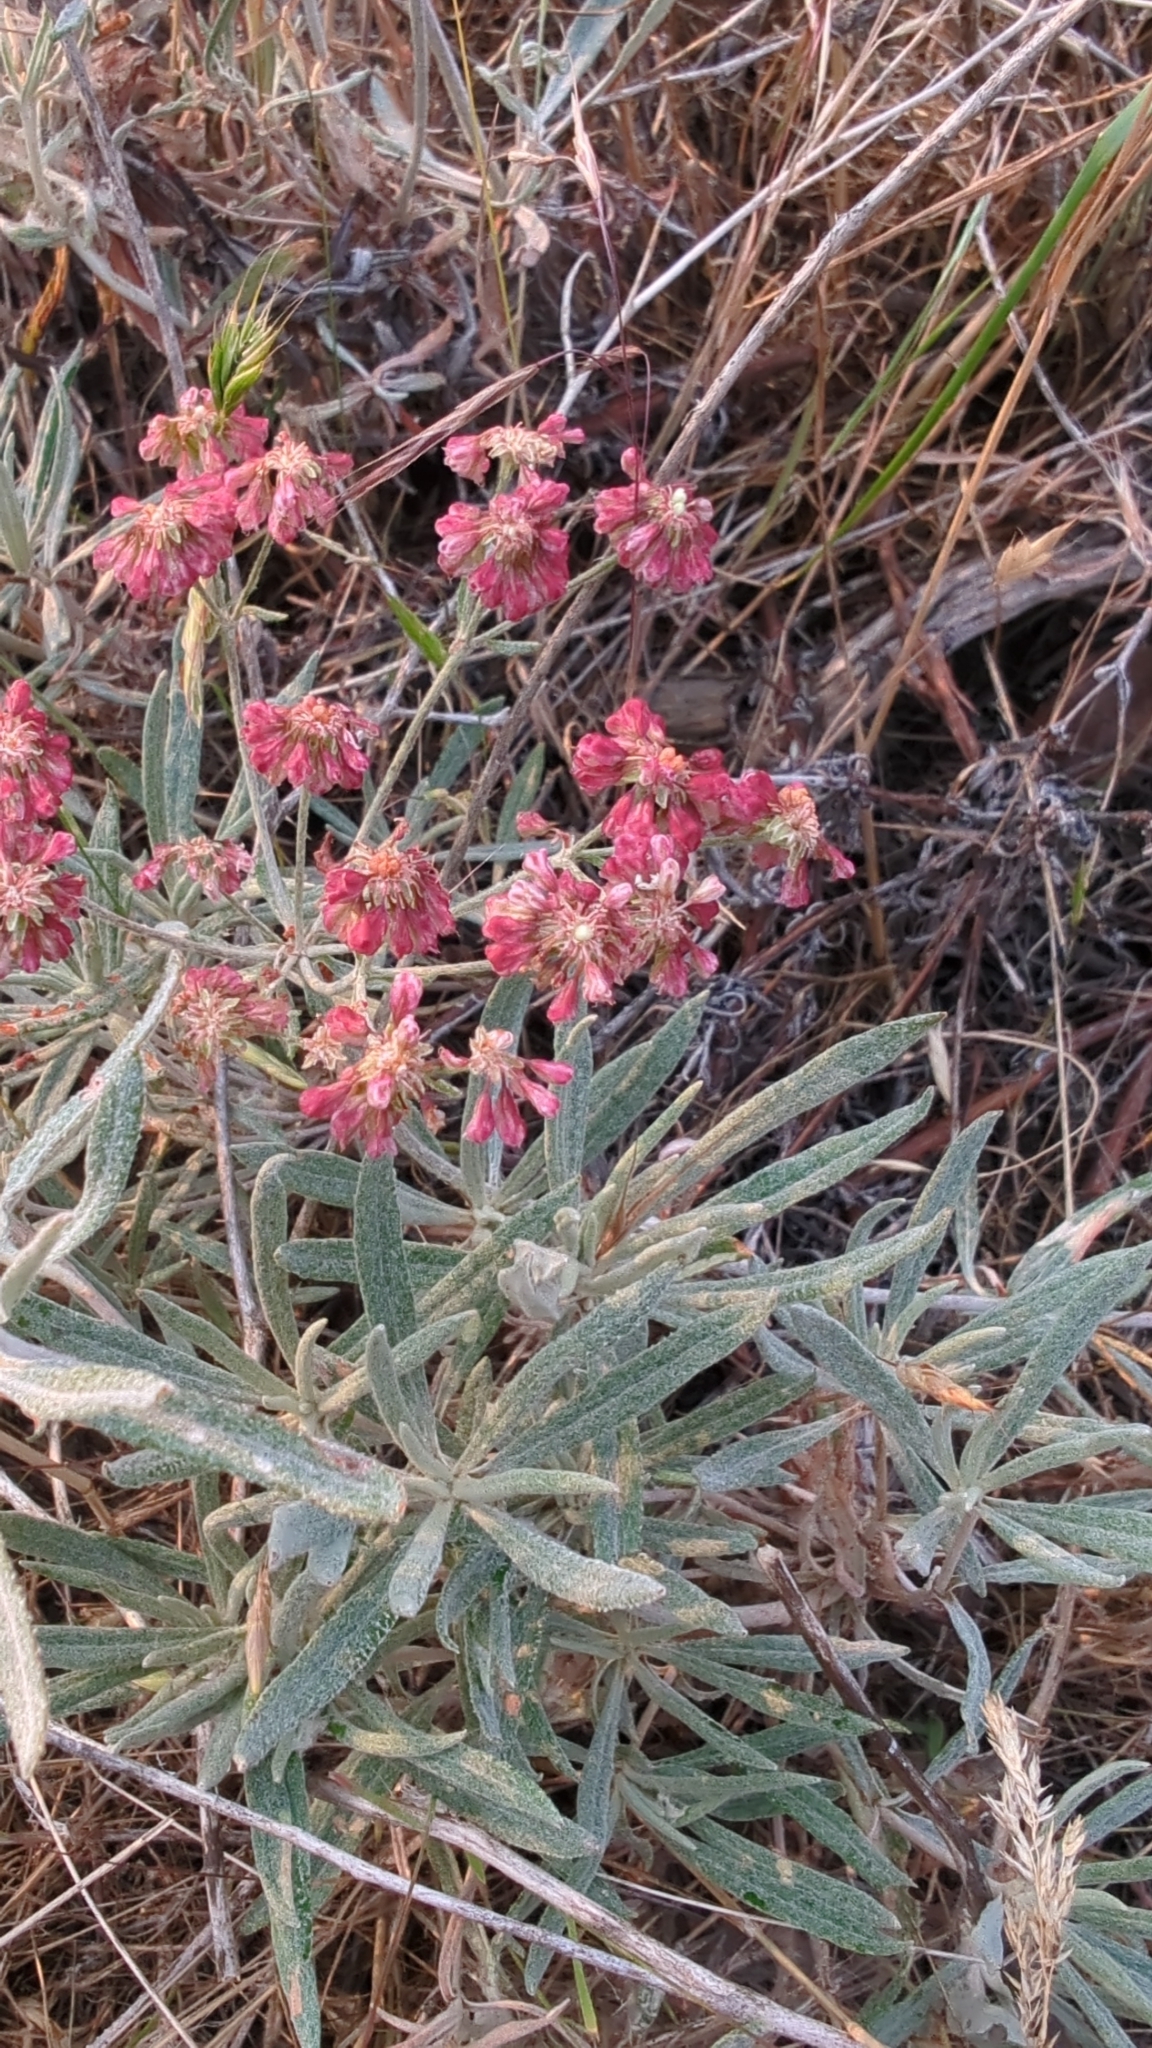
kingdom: Plantae
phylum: Tracheophyta
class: Magnoliopsida
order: Caryophyllales
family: Polygonaceae
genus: Eriogonum
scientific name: Eriogonum heracleoides
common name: Wyeth's buckwheat
